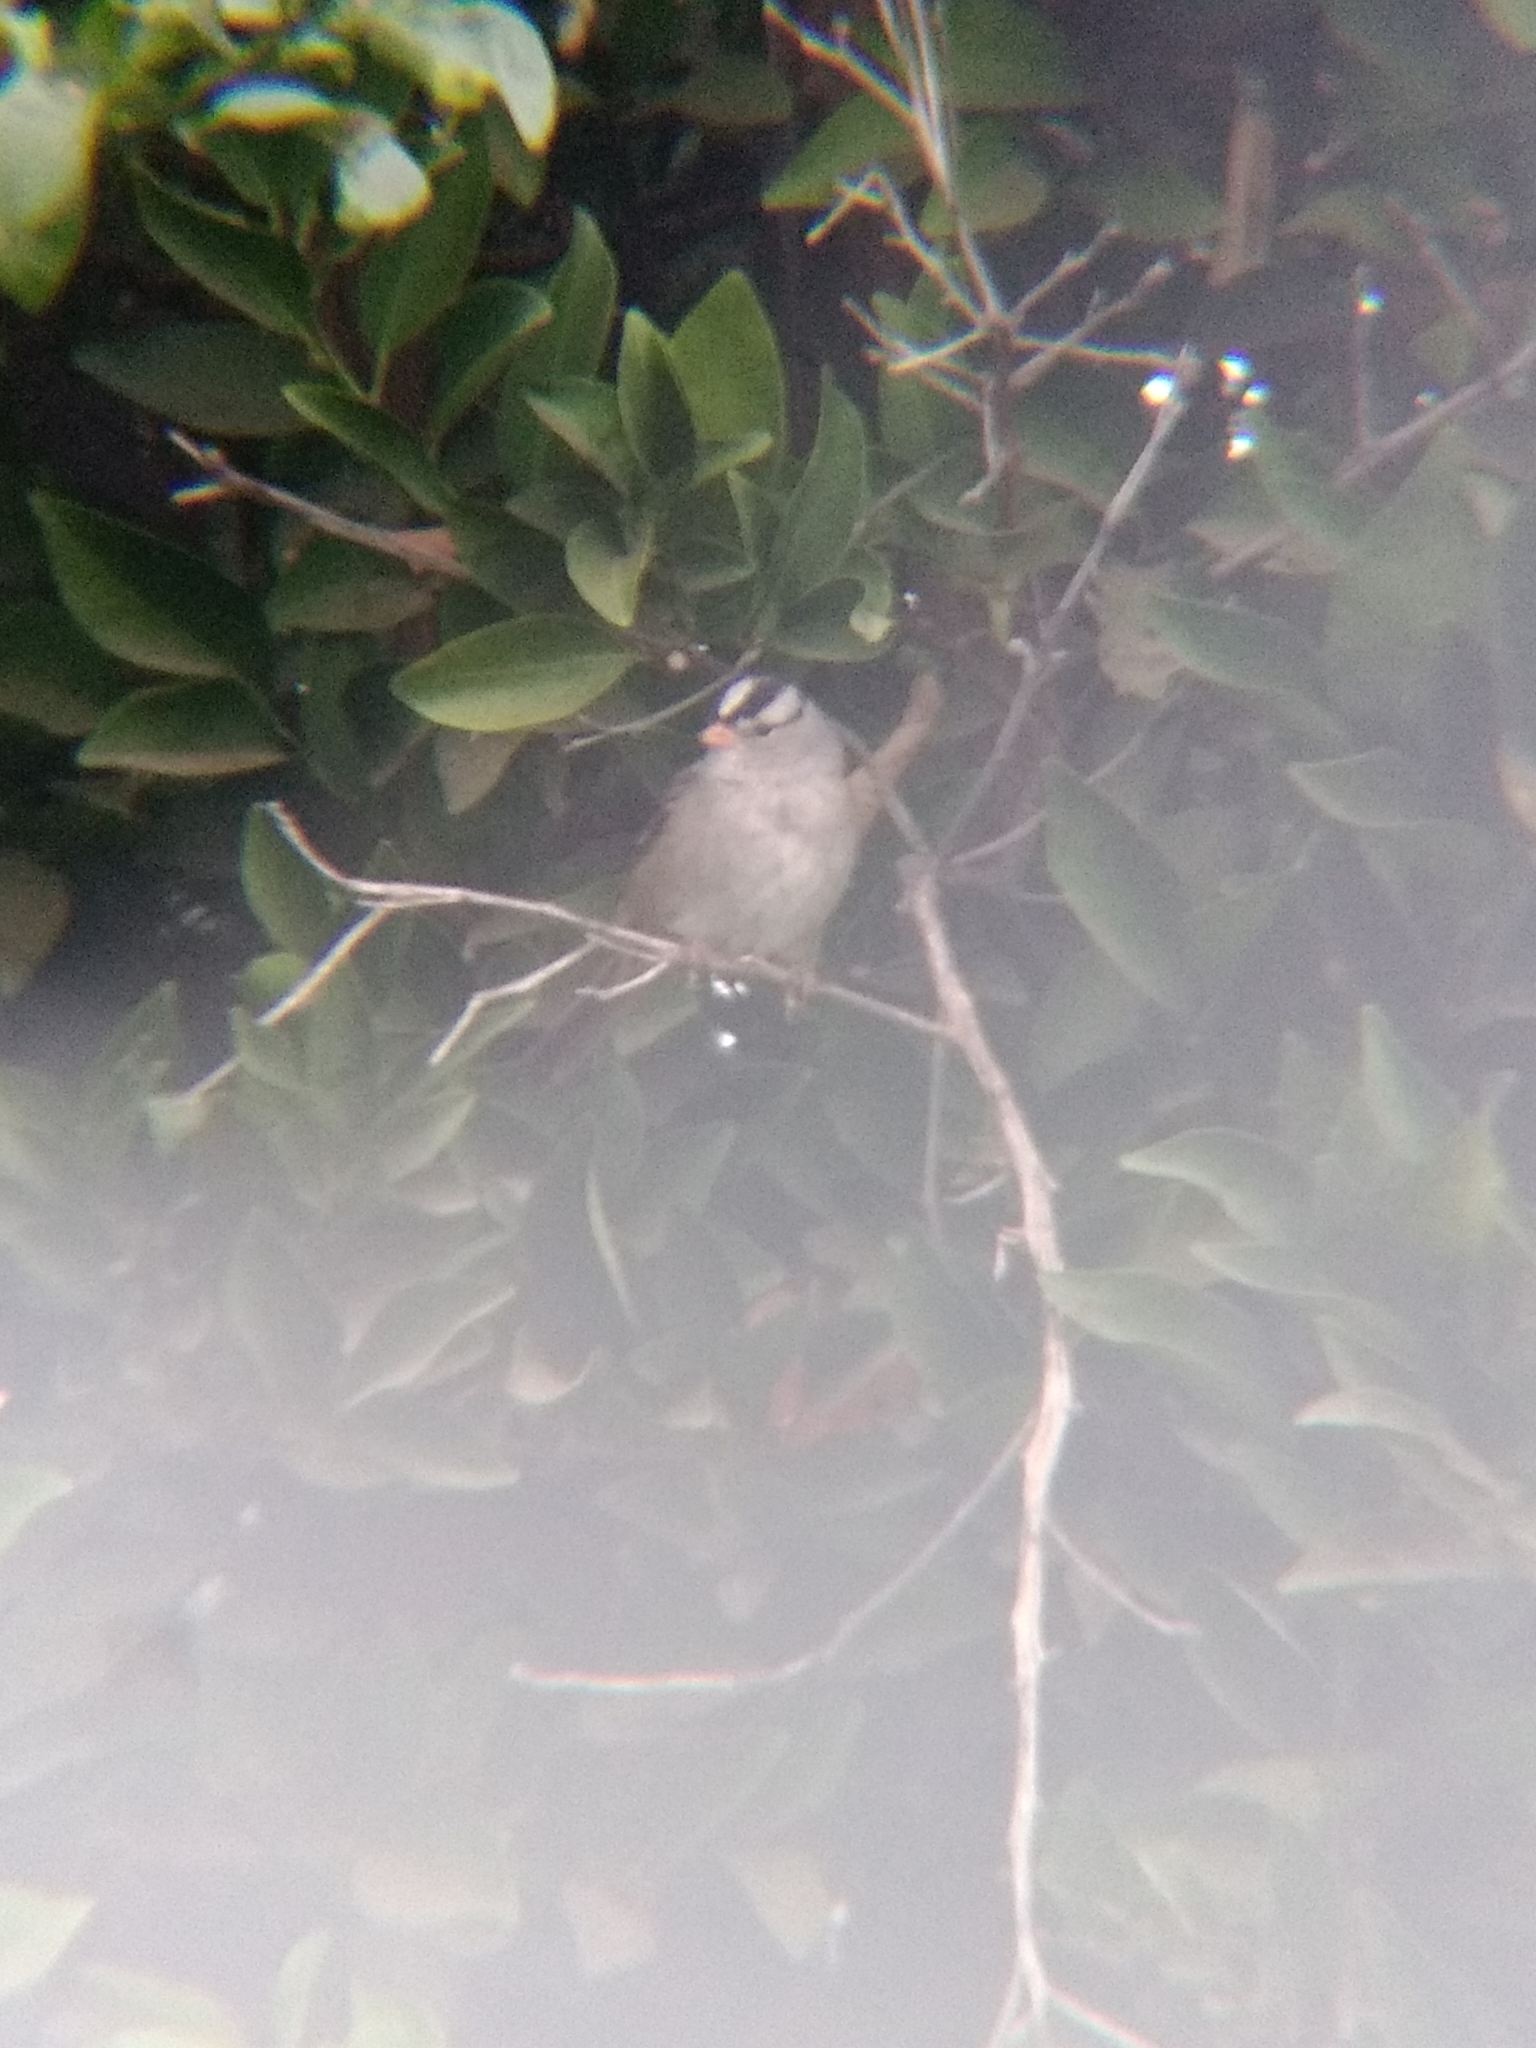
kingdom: Animalia
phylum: Chordata
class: Aves
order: Passeriformes
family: Passerellidae
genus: Zonotrichia
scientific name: Zonotrichia leucophrys
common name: White-crowned sparrow
